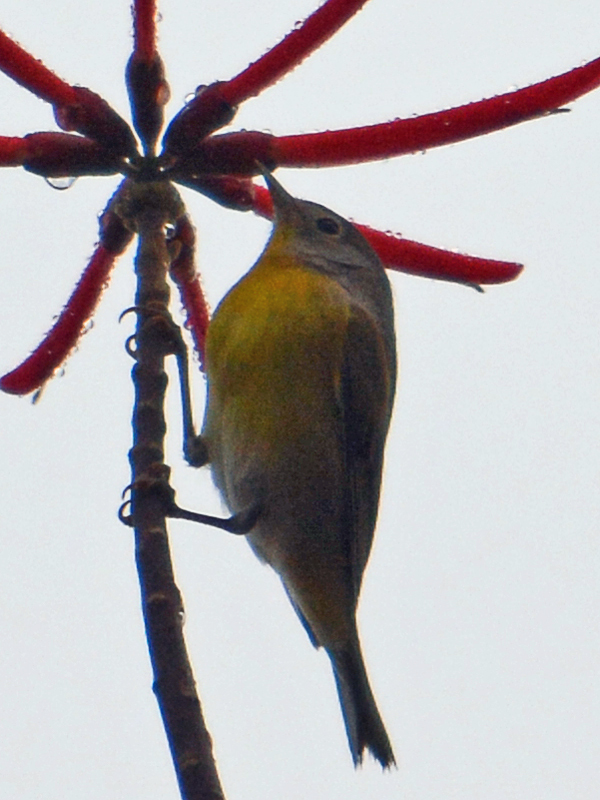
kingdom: Animalia
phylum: Chordata
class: Aves
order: Passeriformes
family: Parulidae
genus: Leiothlypis
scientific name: Leiothlypis ruficapilla
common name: Nashville warbler
